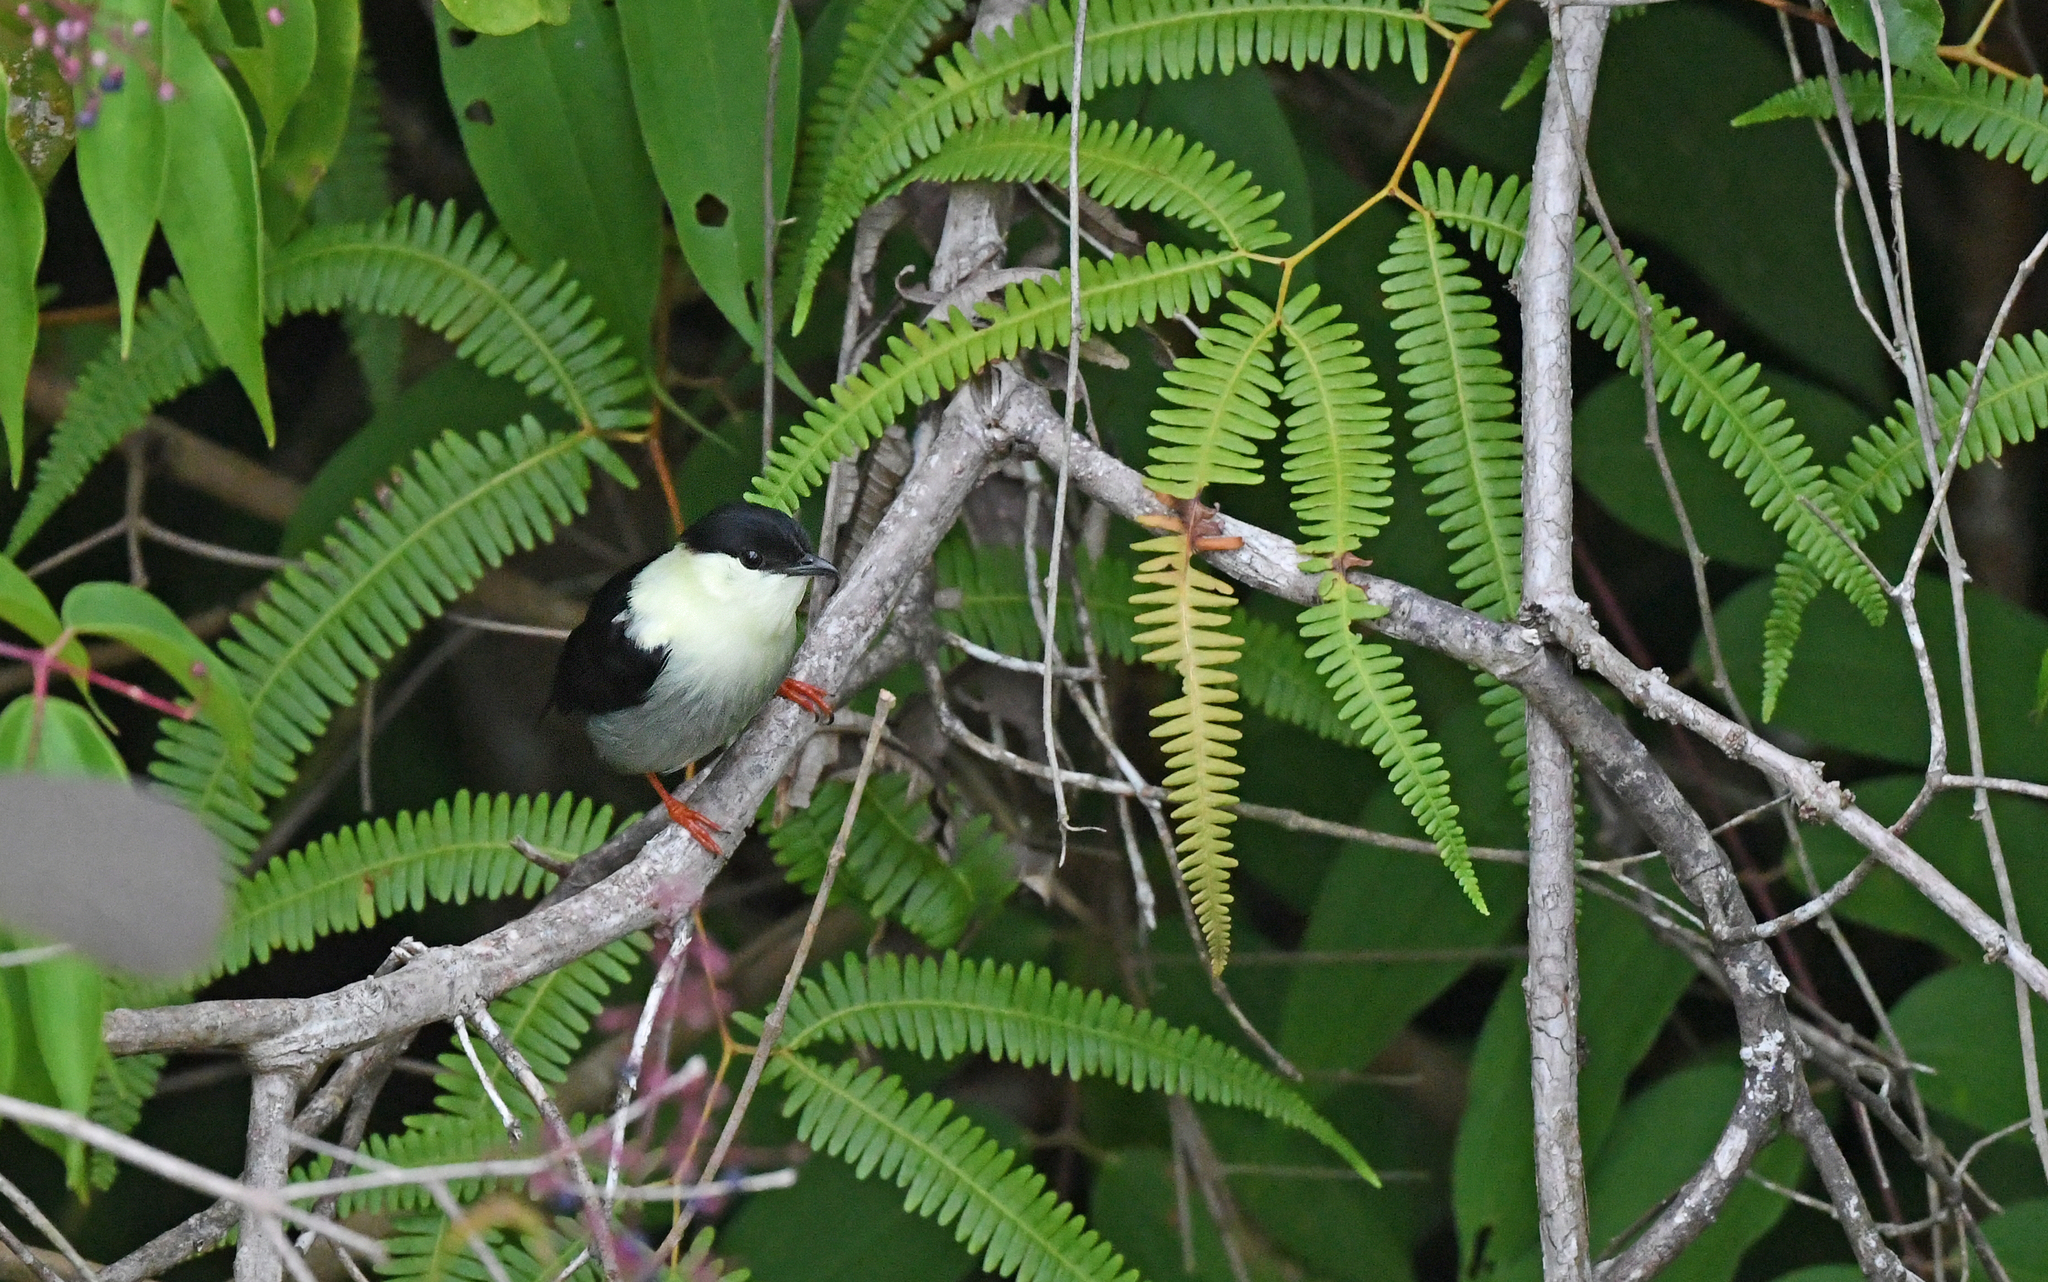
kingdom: Animalia
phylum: Chordata
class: Aves
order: Passeriformes
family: Pipridae
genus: Manacus
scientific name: Manacus manacus
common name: White-bearded manakin
